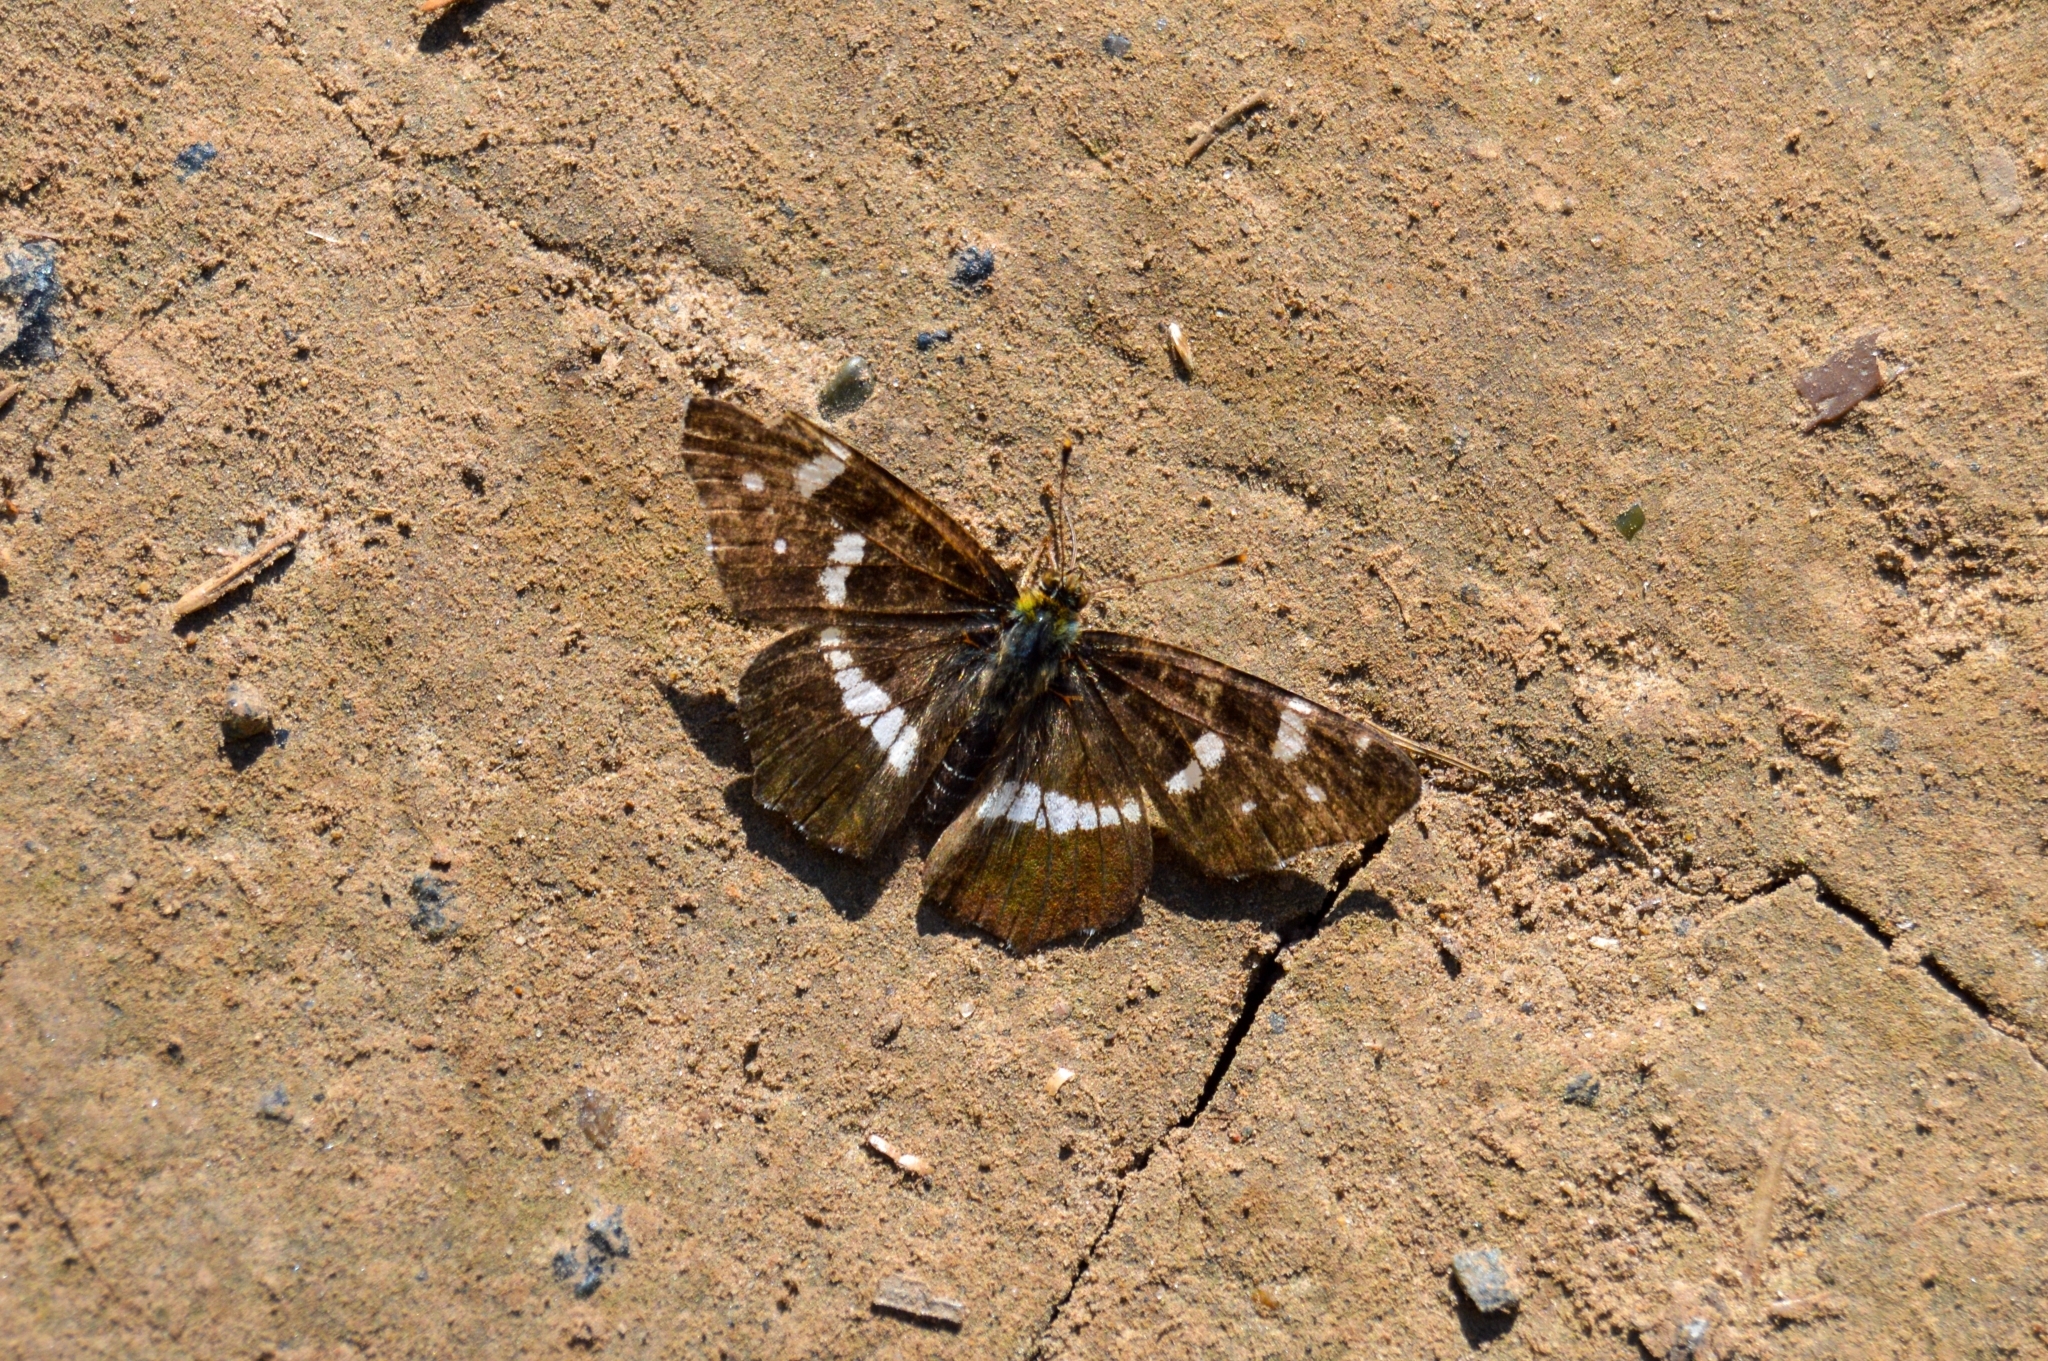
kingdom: Animalia
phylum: Arthropoda
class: Insecta
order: Lepidoptera
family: Nymphalidae
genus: Araschnia
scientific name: Araschnia levana
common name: Map butterfly
